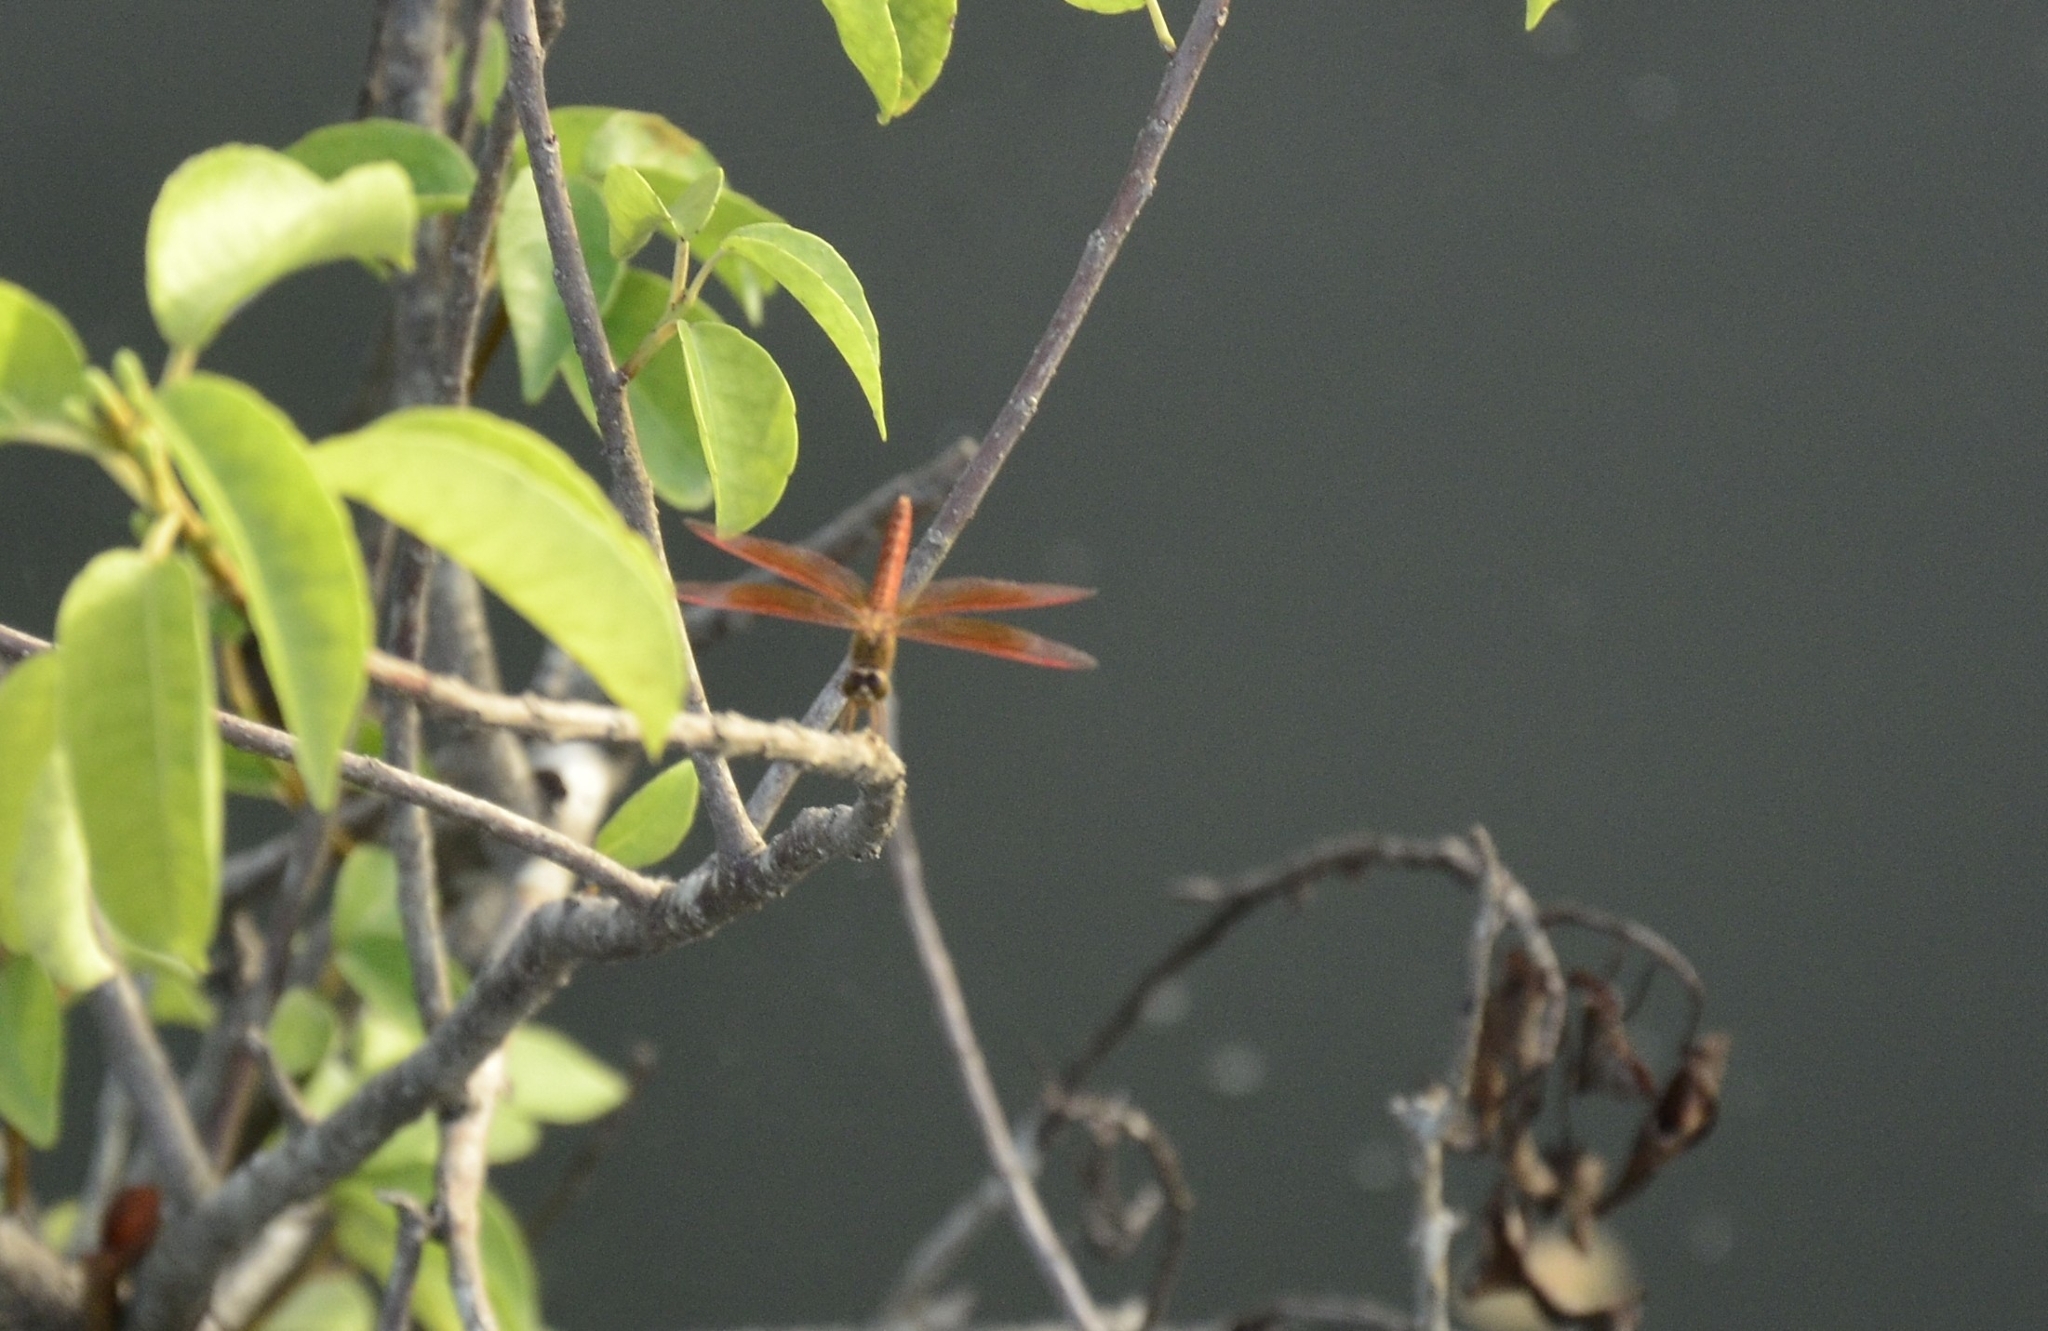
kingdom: Animalia
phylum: Arthropoda
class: Insecta
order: Odonata
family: Libellulidae
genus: Brachythemis
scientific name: Brachythemis contaminata
